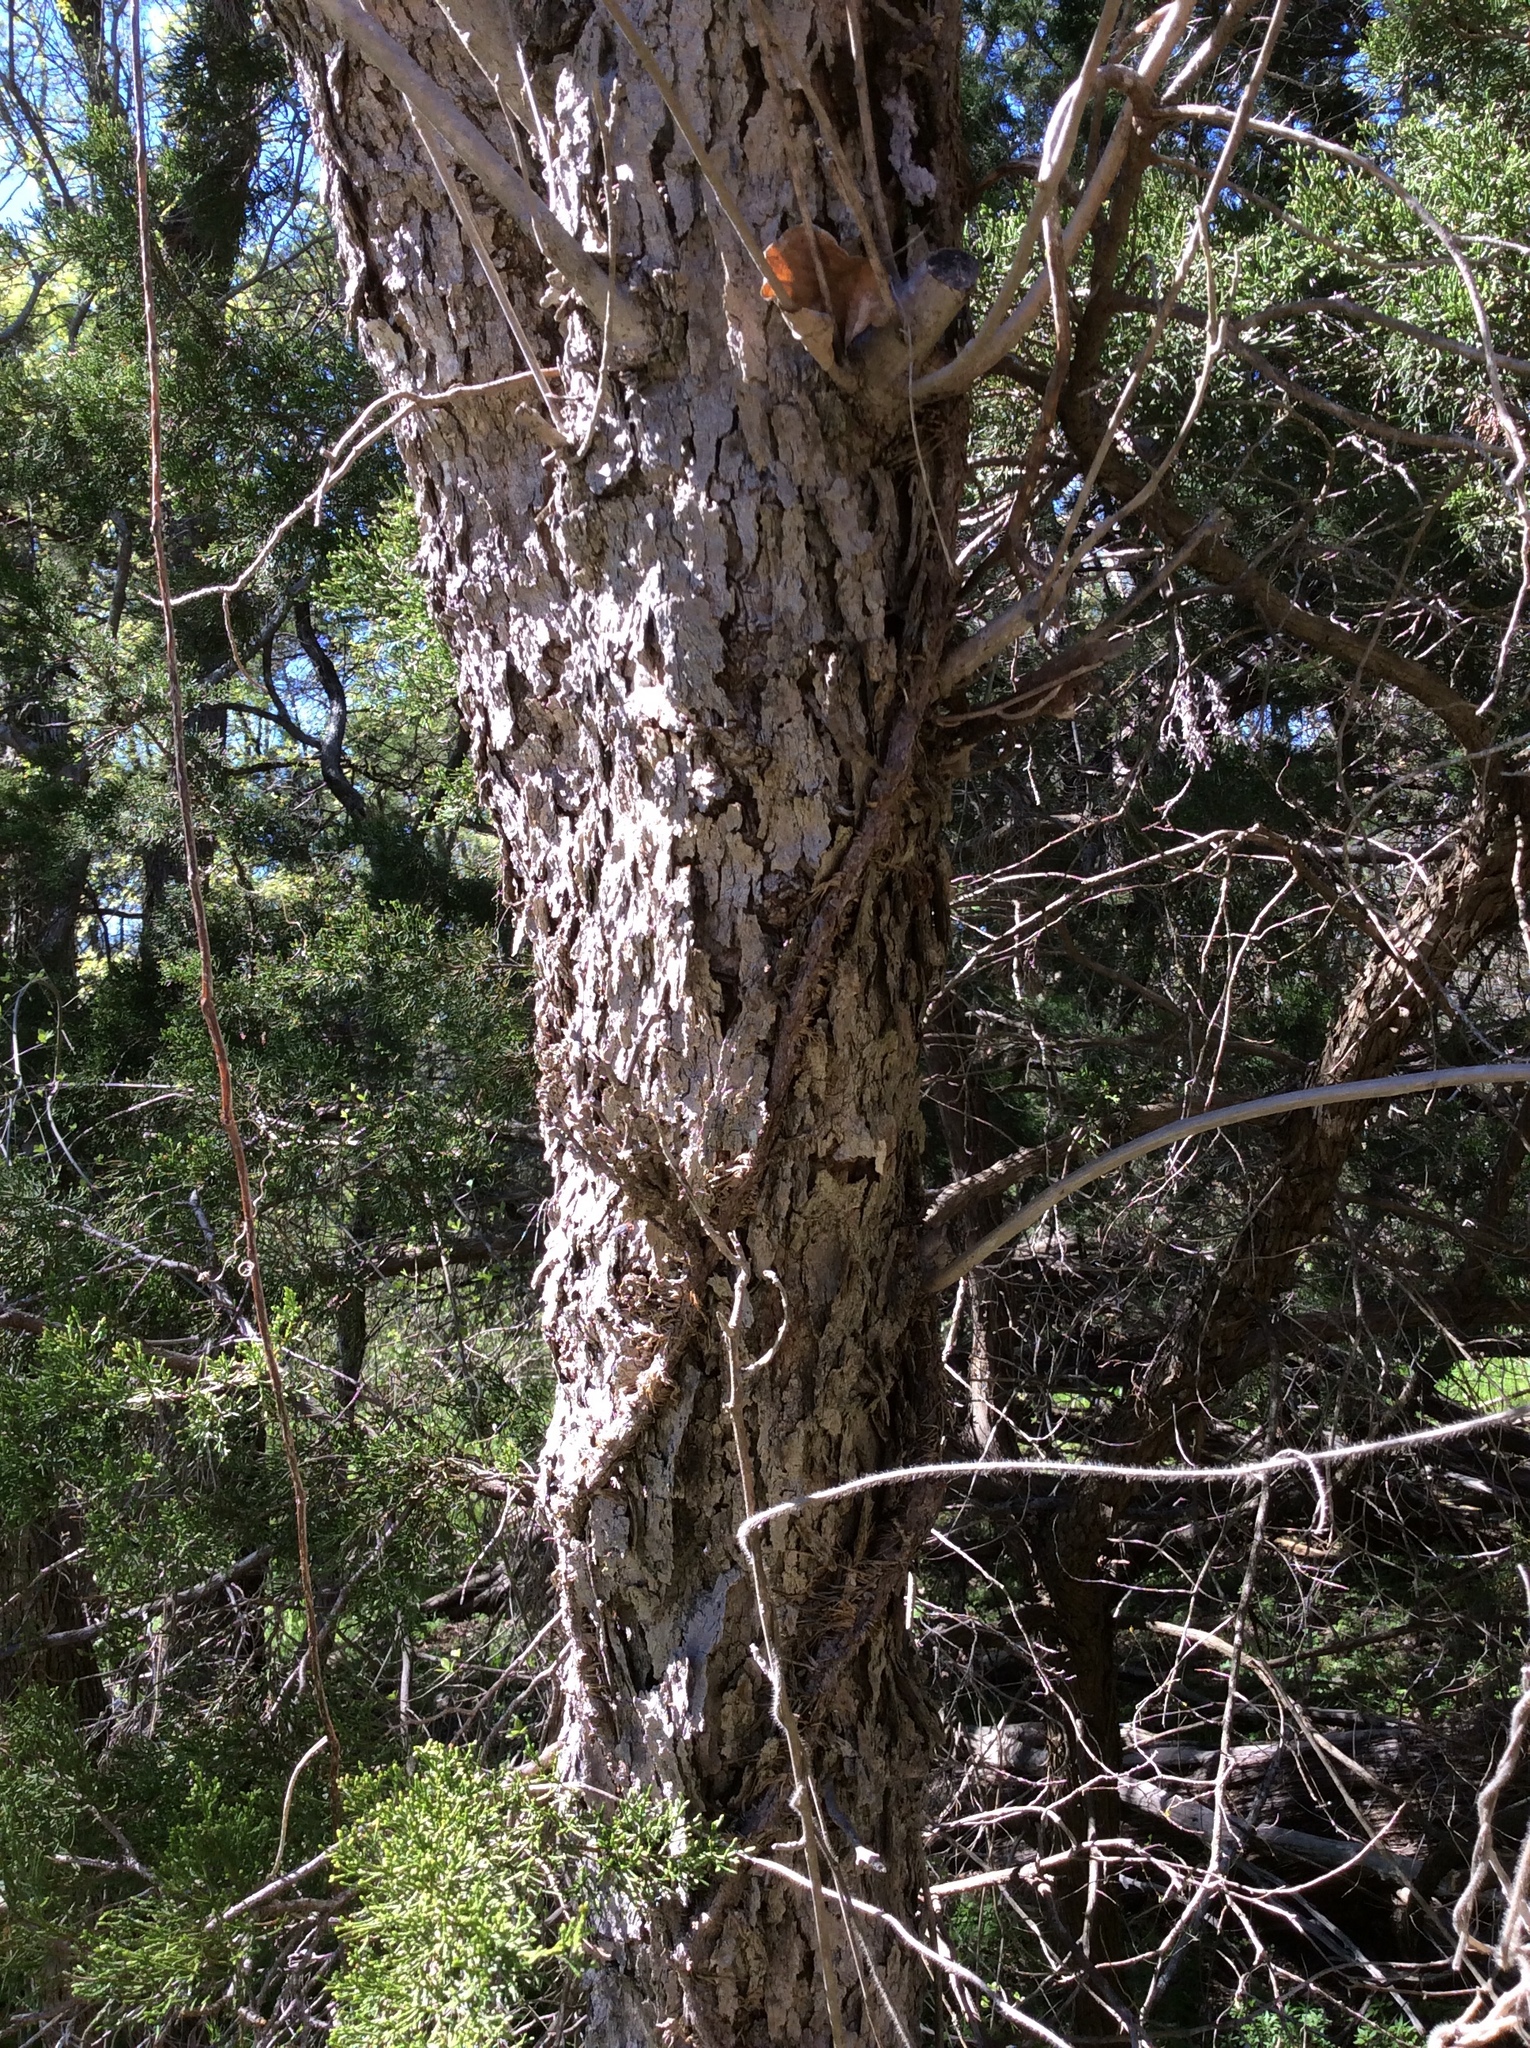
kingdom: Plantae
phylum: Tracheophyta
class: Magnoliopsida
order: Sapindales
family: Sapindaceae
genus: Sapindus
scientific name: Sapindus drummondii
